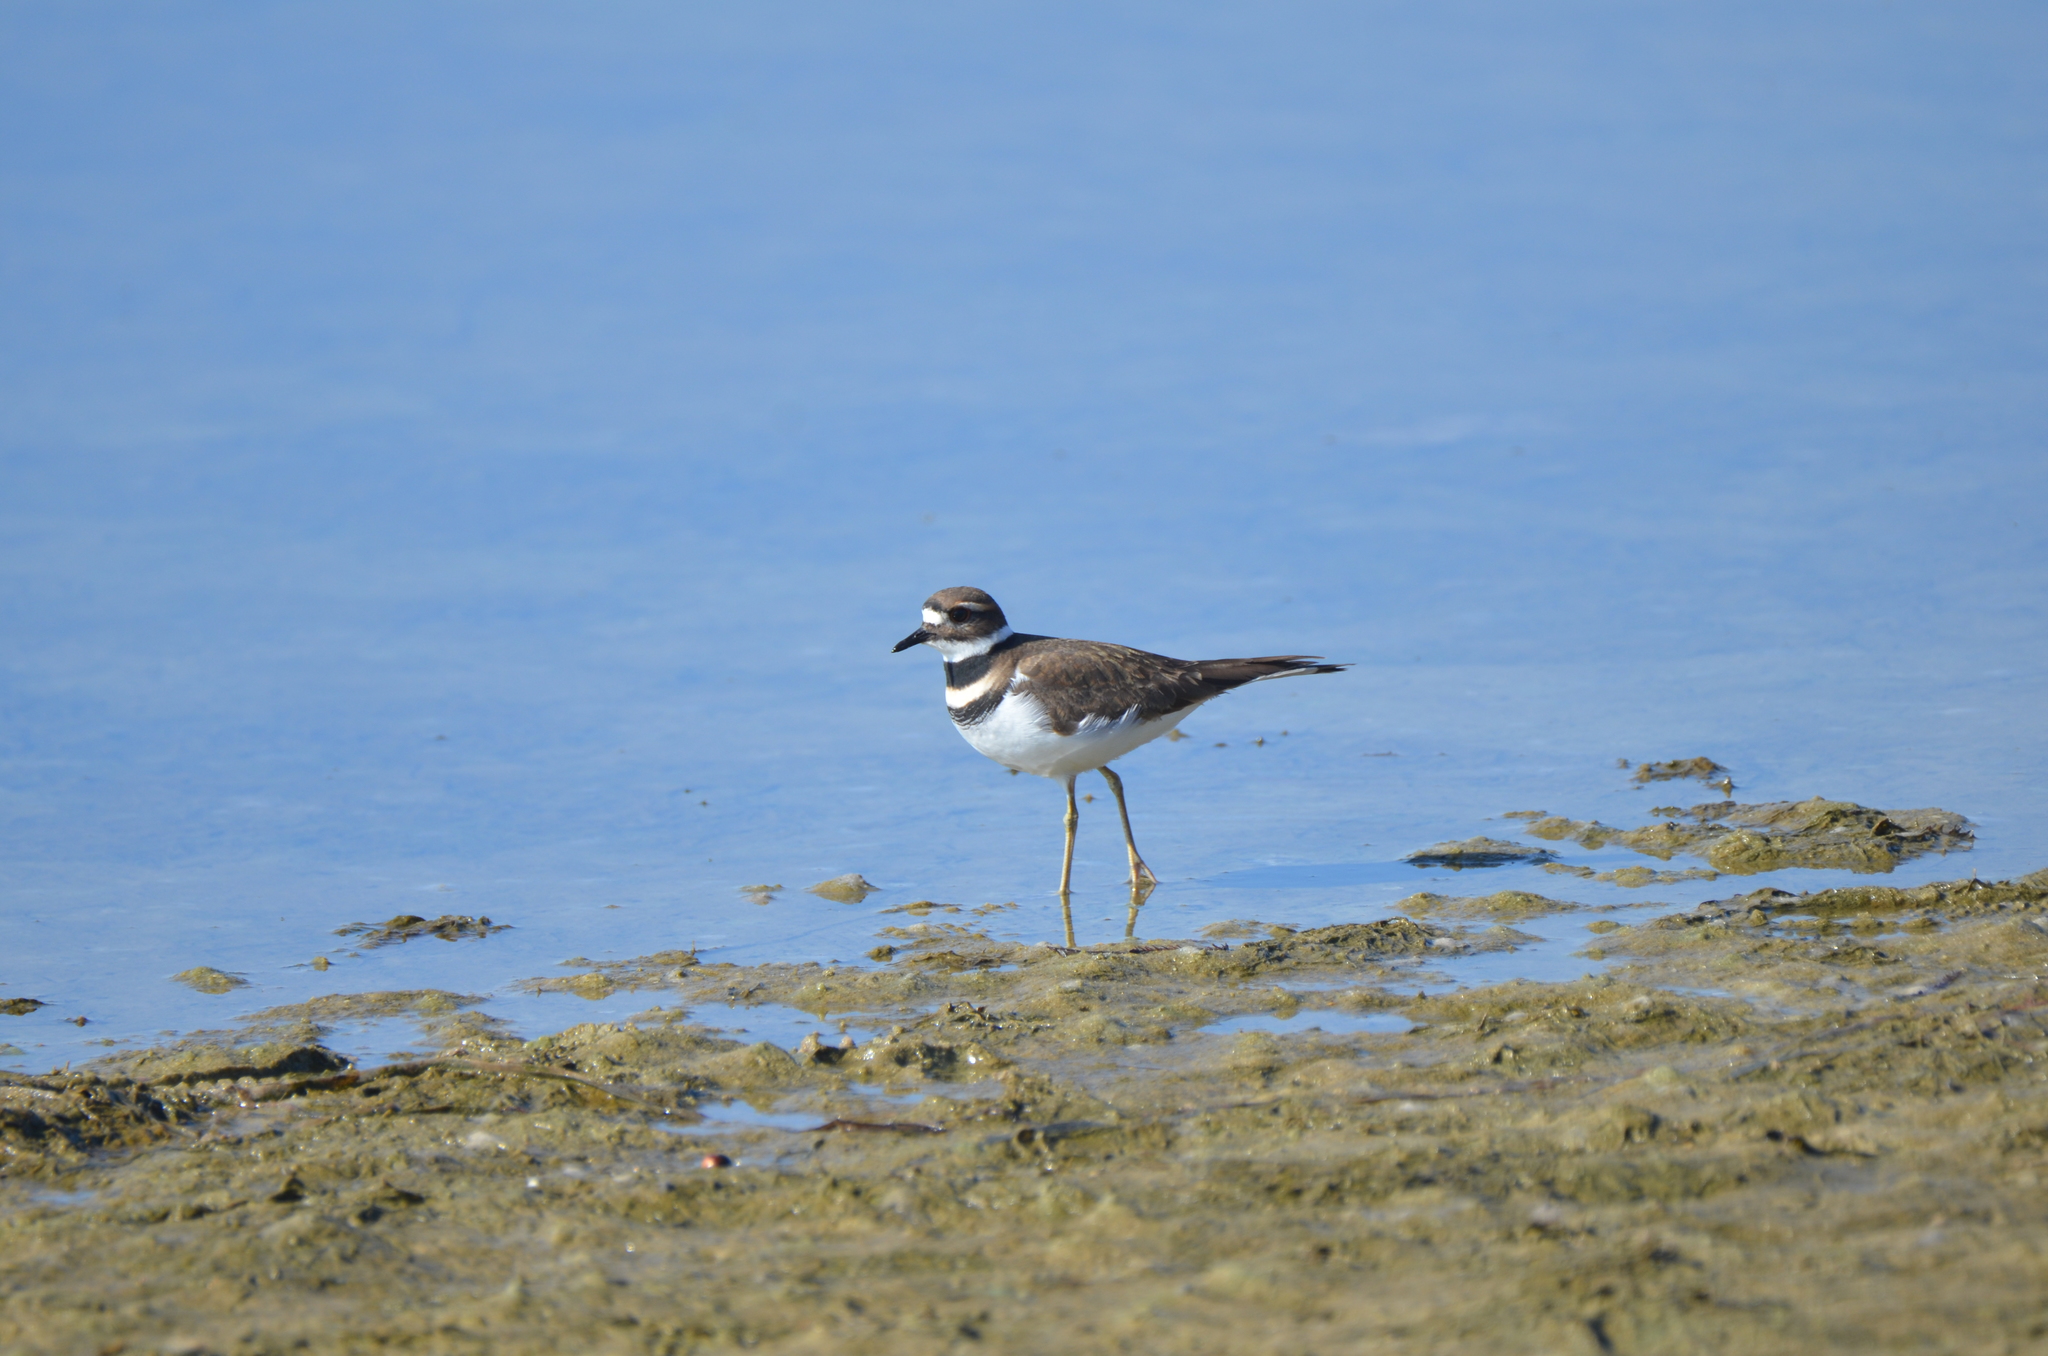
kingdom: Animalia
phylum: Chordata
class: Aves
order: Charadriiformes
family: Charadriidae
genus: Charadrius
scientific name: Charadrius vociferus
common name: Killdeer
